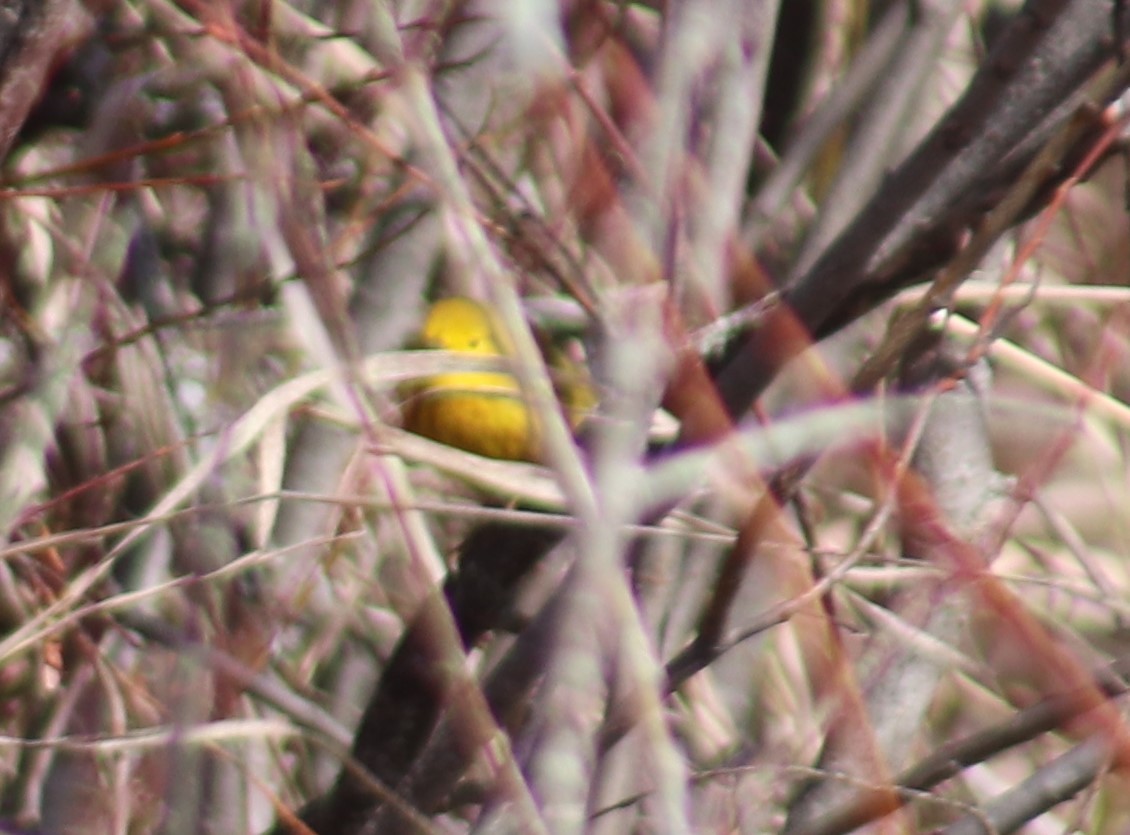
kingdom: Animalia
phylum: Chordata
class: Aves
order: Passeriformes
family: Parulidae
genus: Setophaga
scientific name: Setophaga petechia
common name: Yellow warbler
